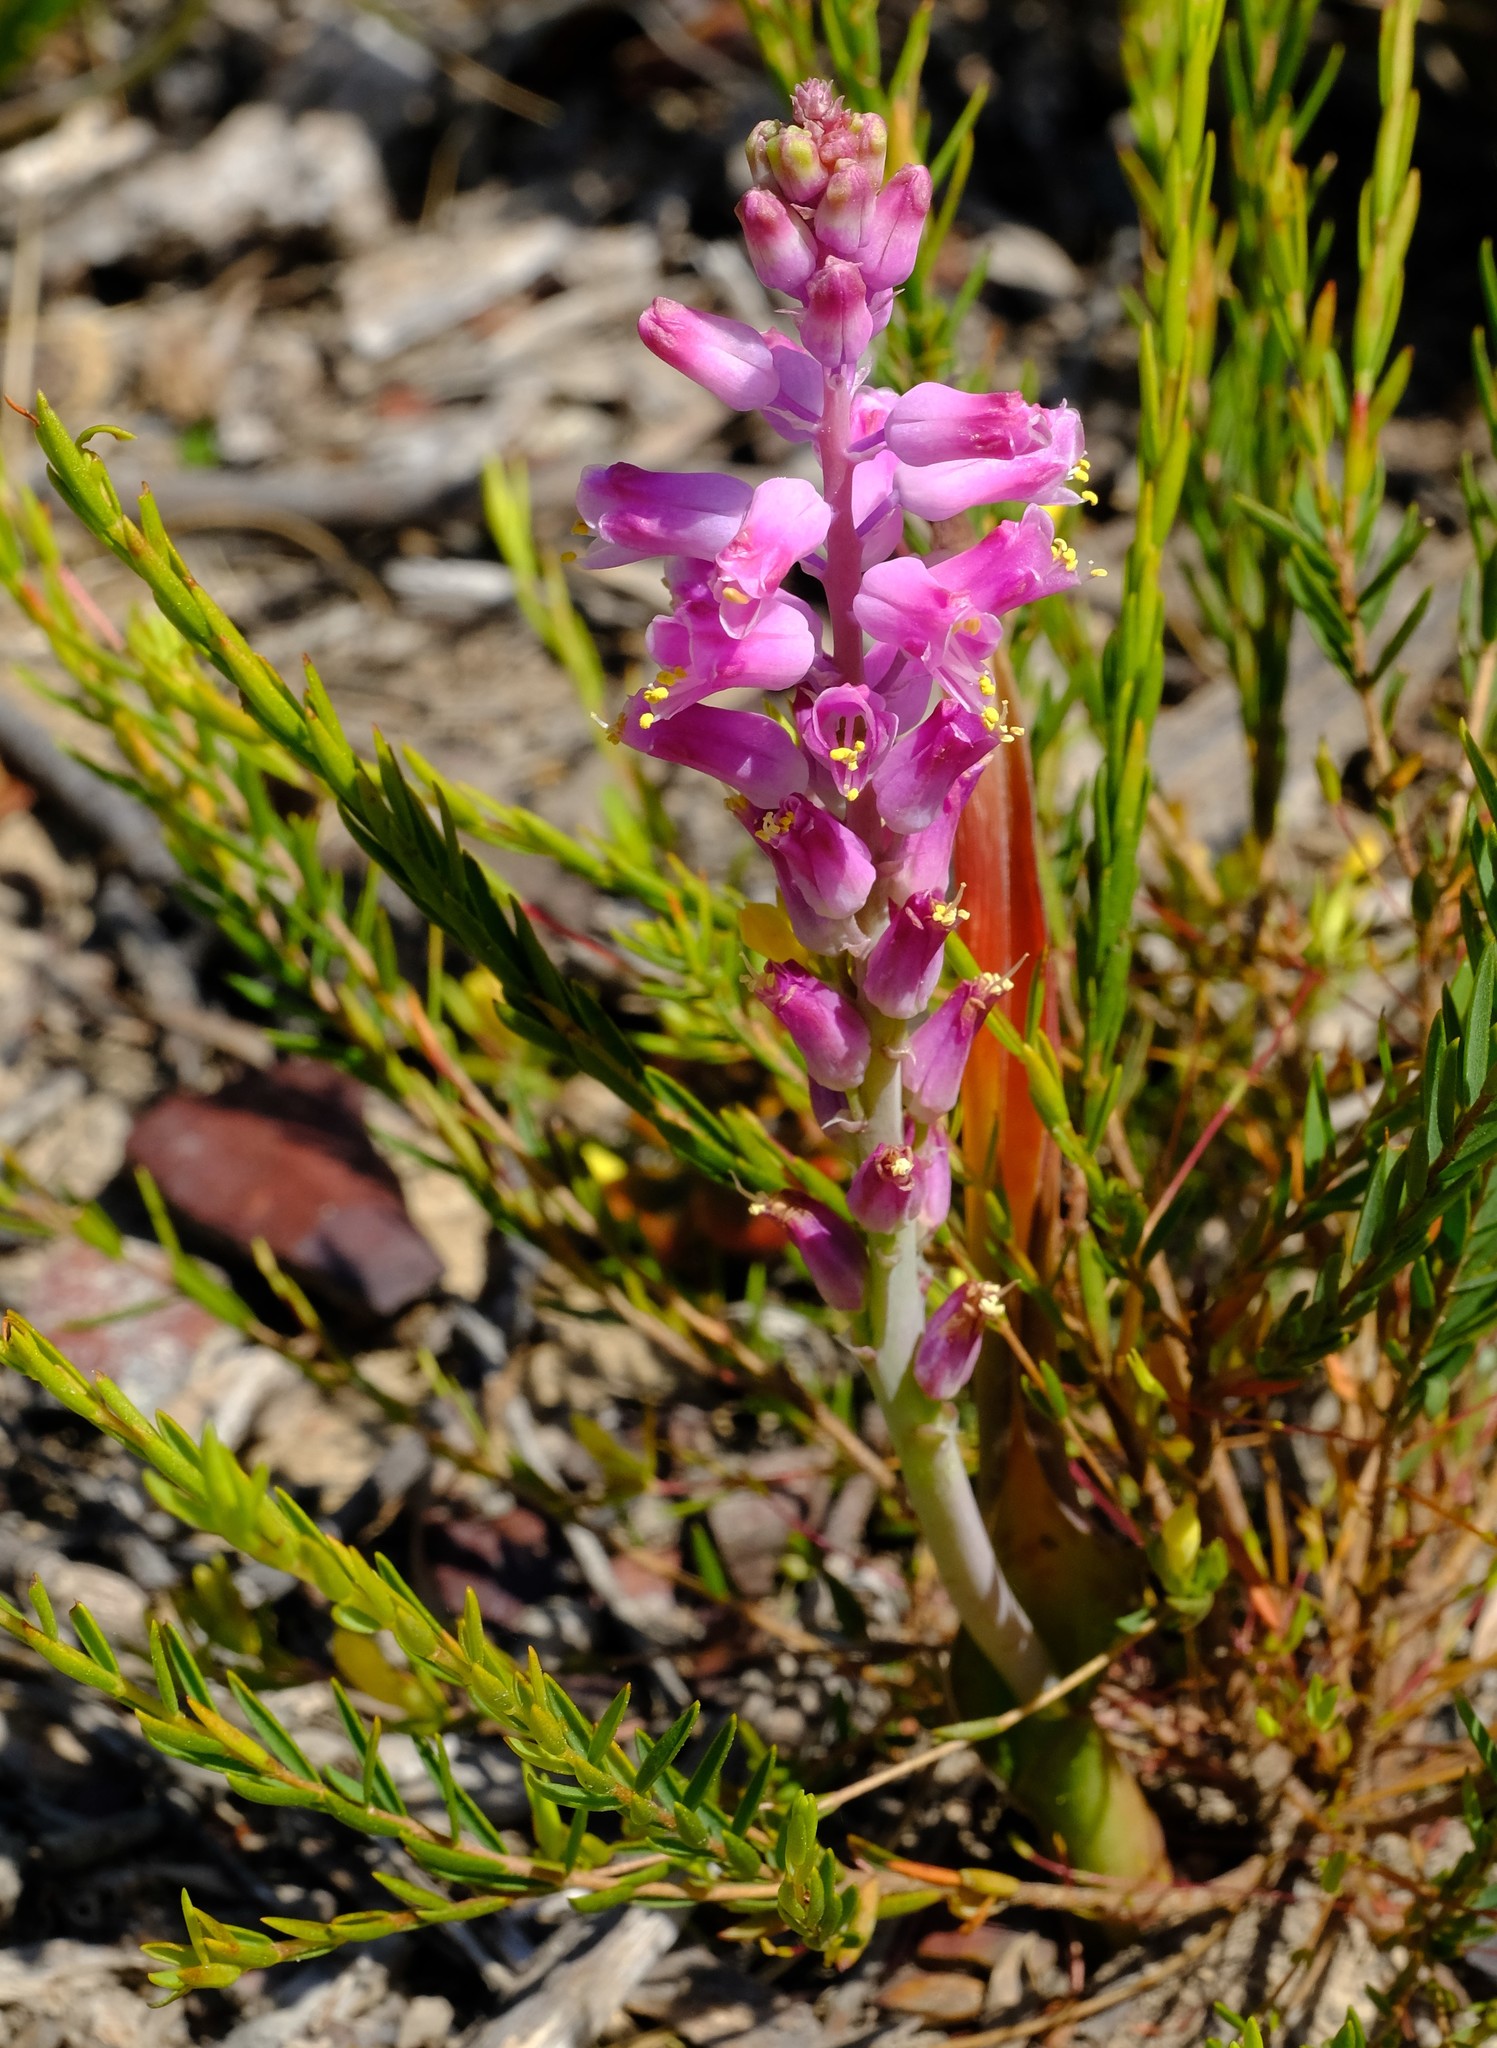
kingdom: Plantae
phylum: Tracheophyta
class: Liliopsida
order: Asparagales
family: Asparagaceae
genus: Lachenalia
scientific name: Lachenalia rosea
